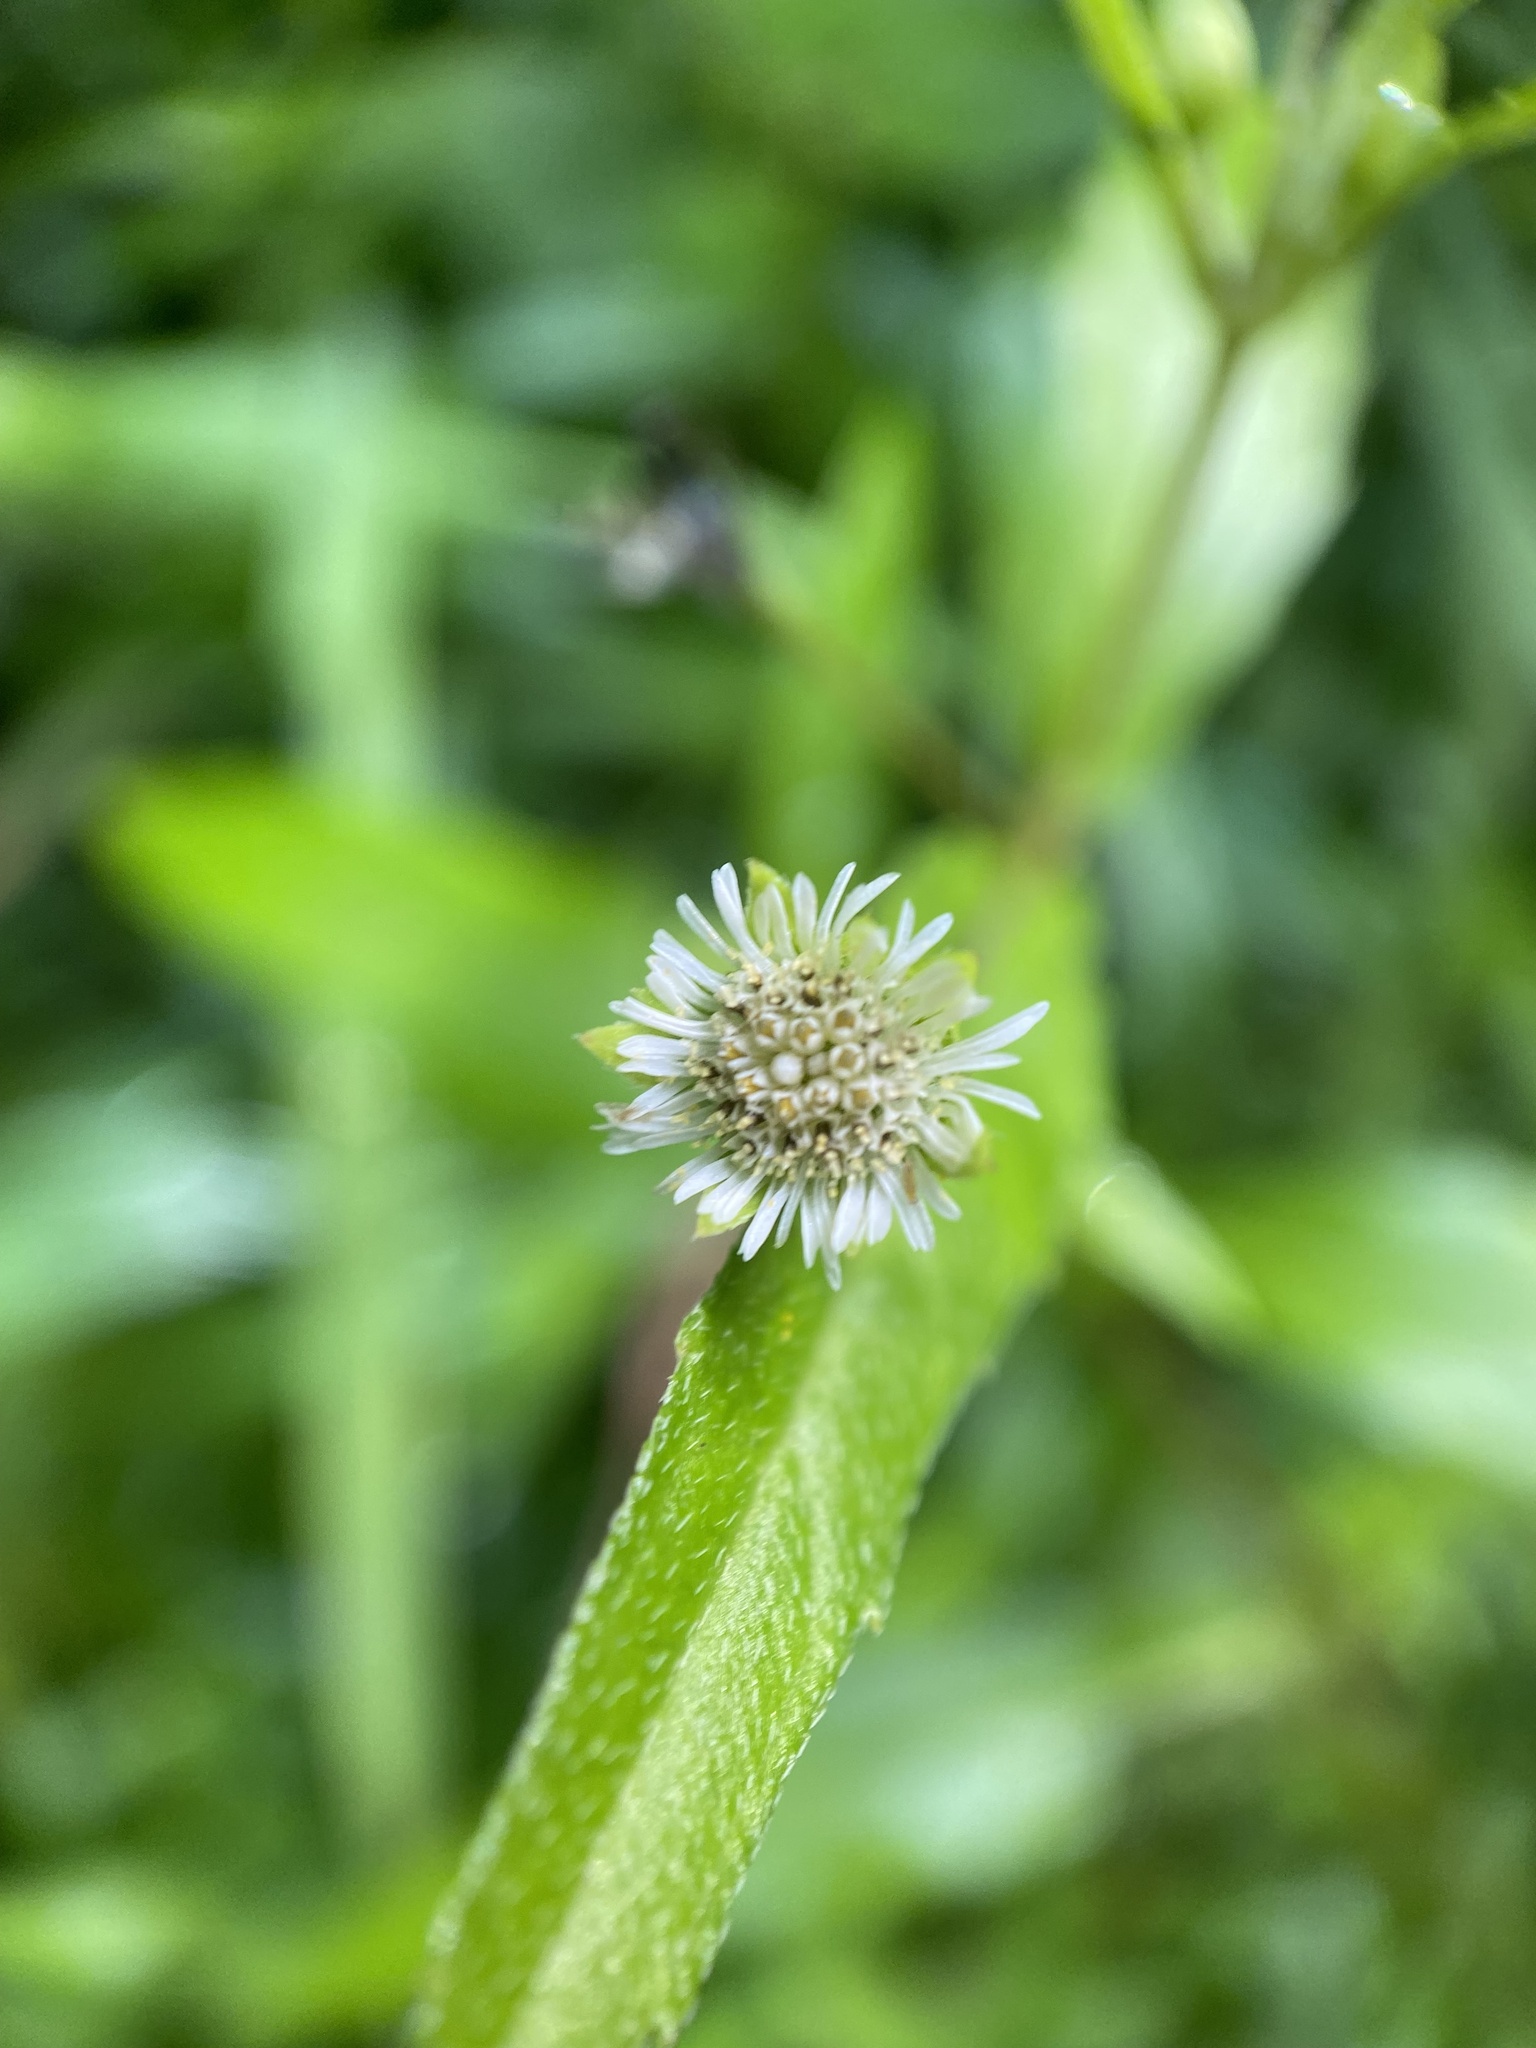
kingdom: Plantae
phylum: Tracheophyta
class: Magnoliopsida
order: Asterales
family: Asteraceae
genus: Eclipta
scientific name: Eclipta prostrata
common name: False daisy
